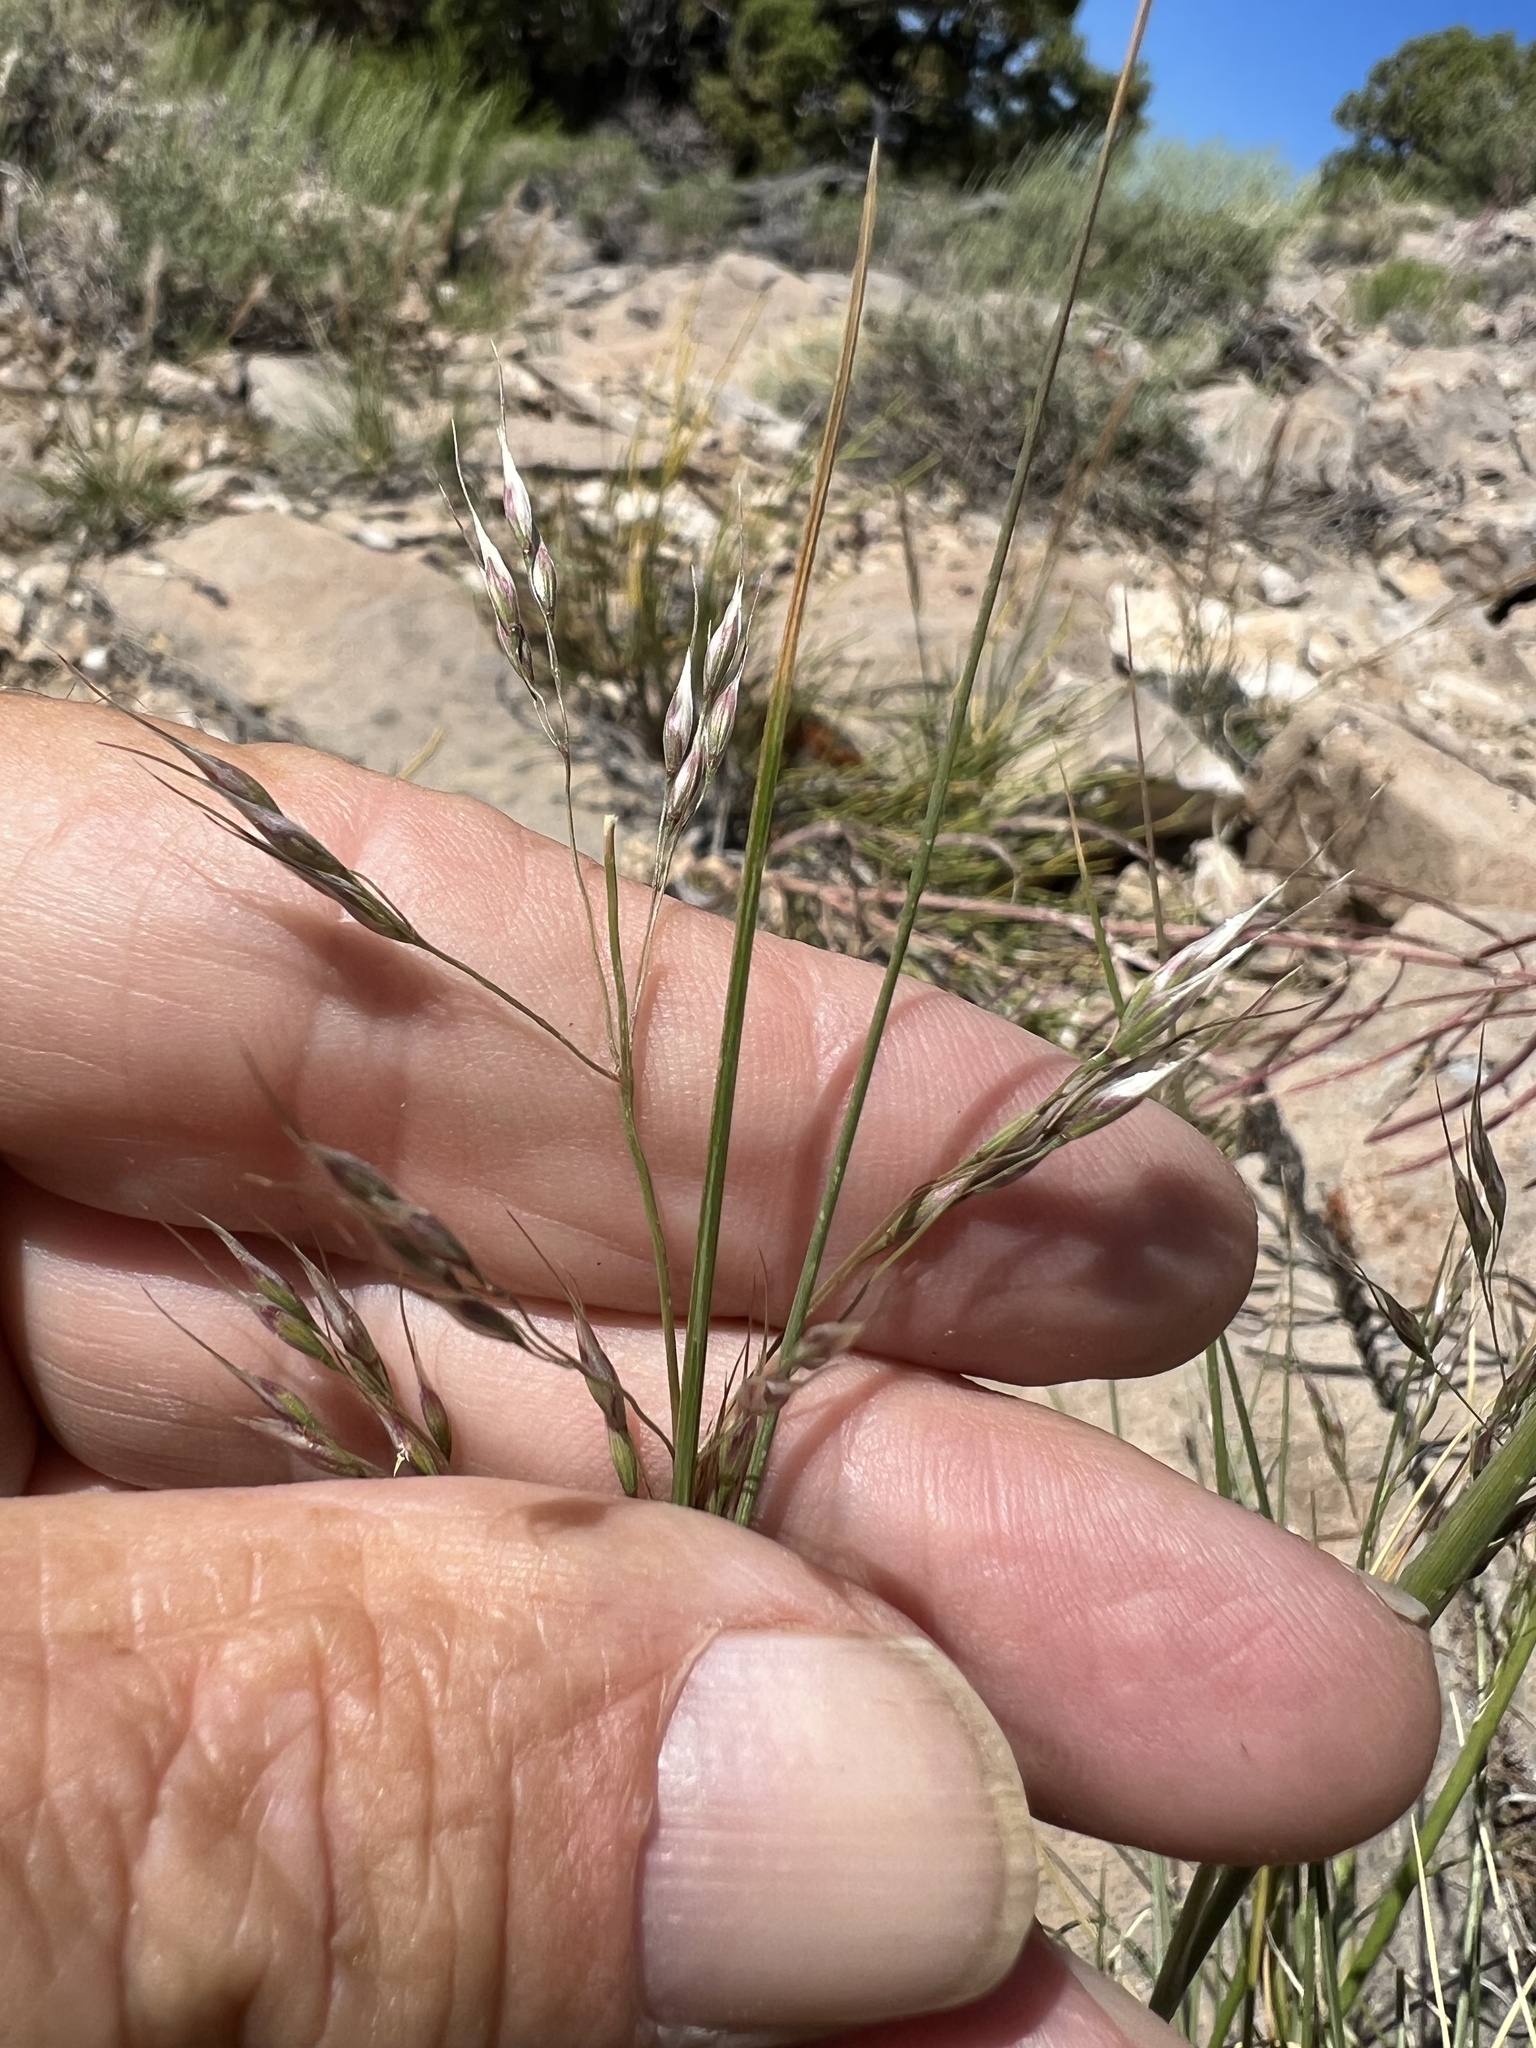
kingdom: Plantae
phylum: Tracheophyta
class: Liliopsida
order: Poales
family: Poaceae
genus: Eriocoma
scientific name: Eriocoma webberi
